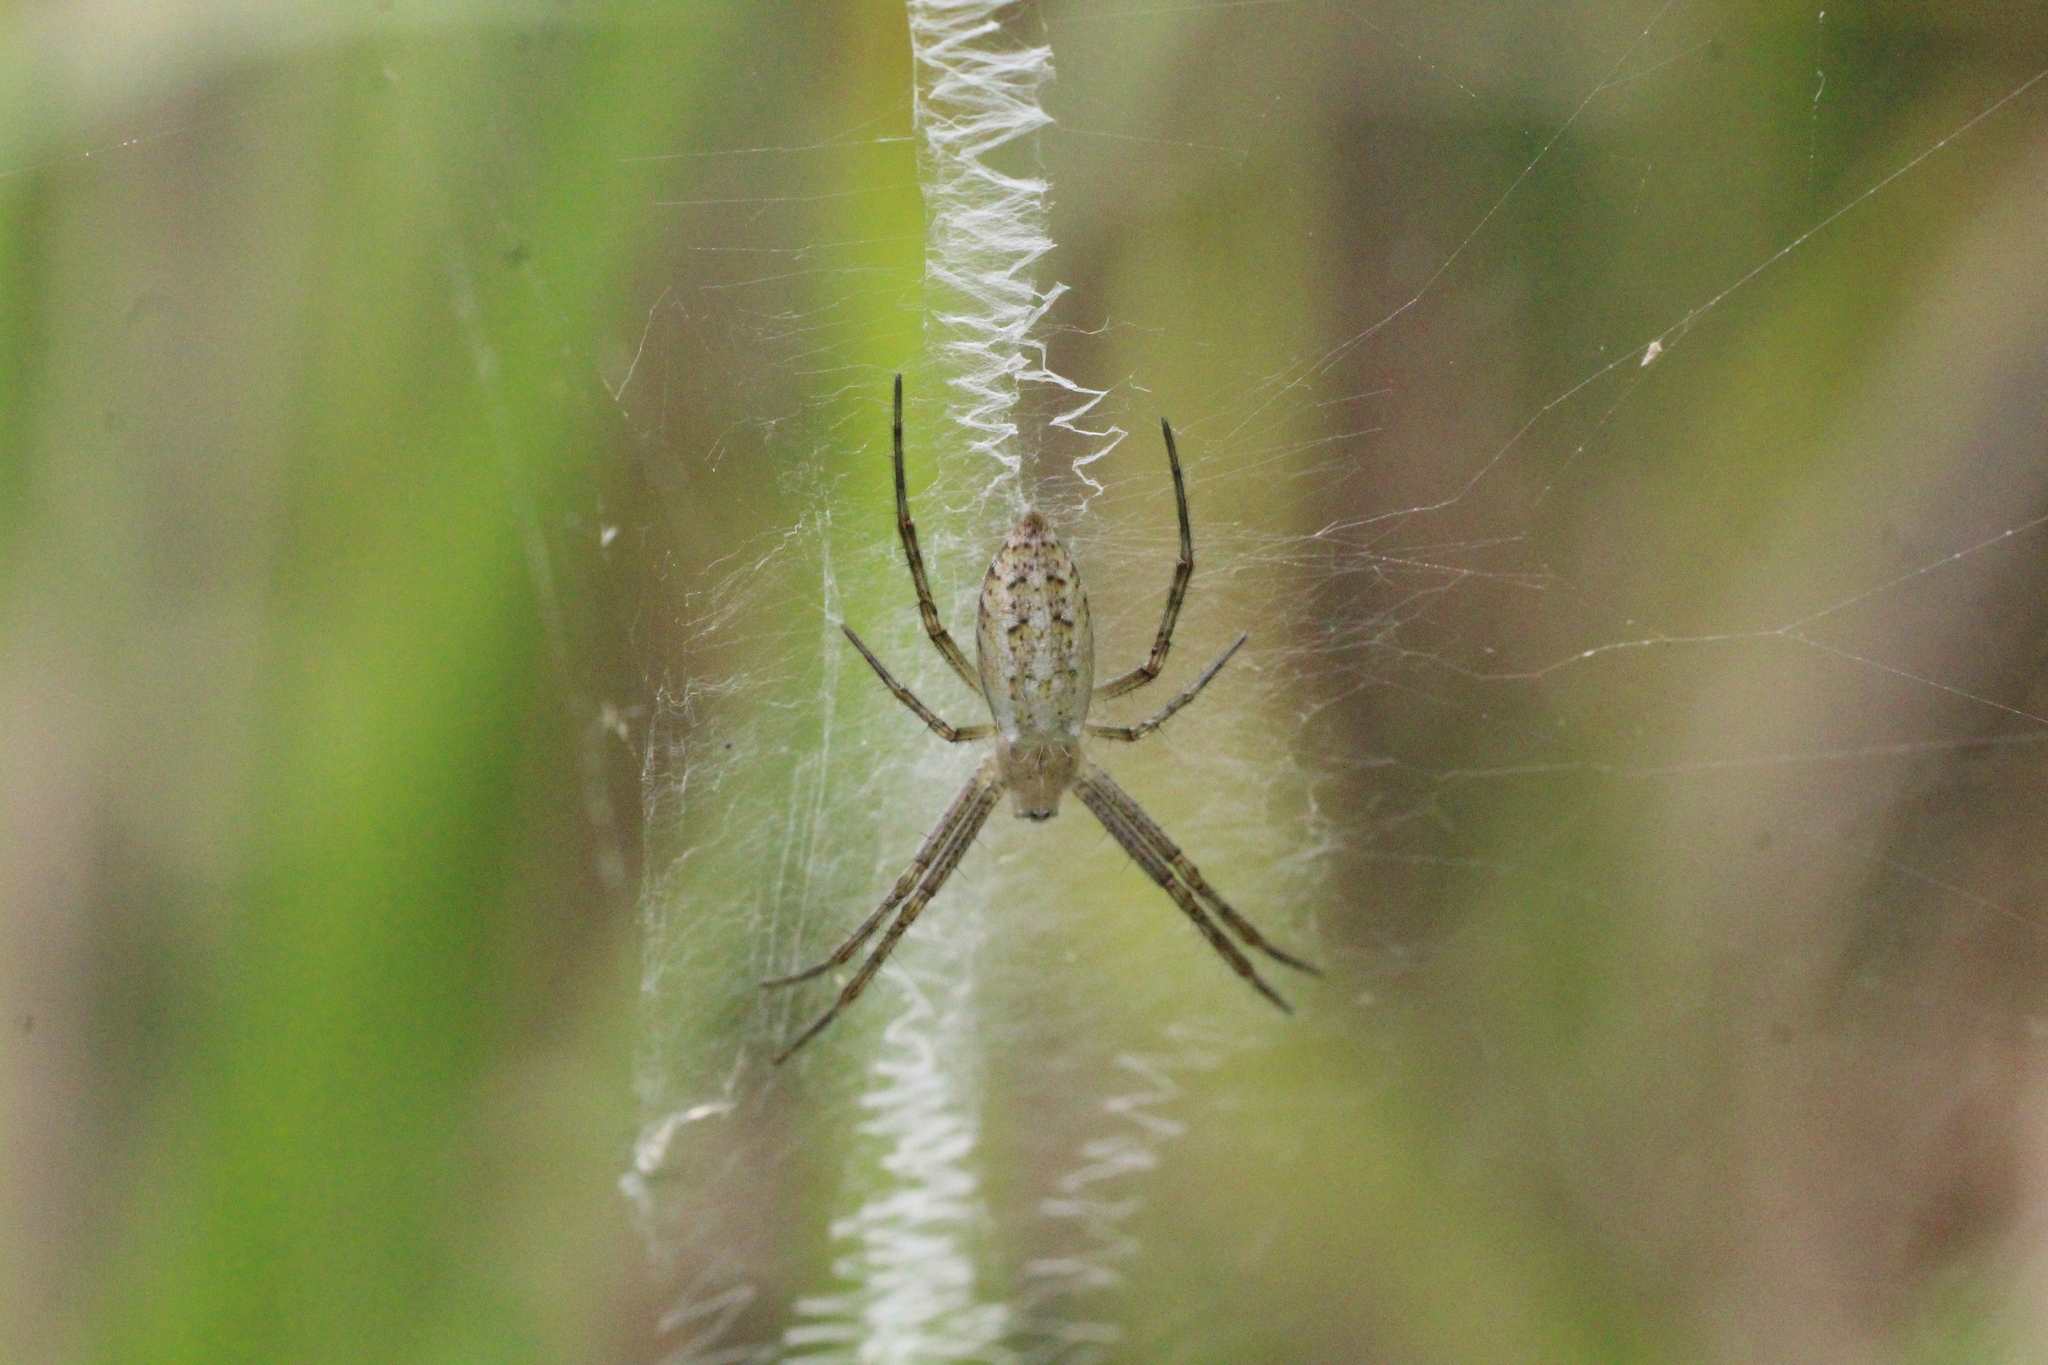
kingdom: Animalia
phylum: Arthropoda
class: Arachnida
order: Araneae
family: Araneidae
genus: Argiope
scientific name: Argiope bruennichi
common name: Wasp spider
